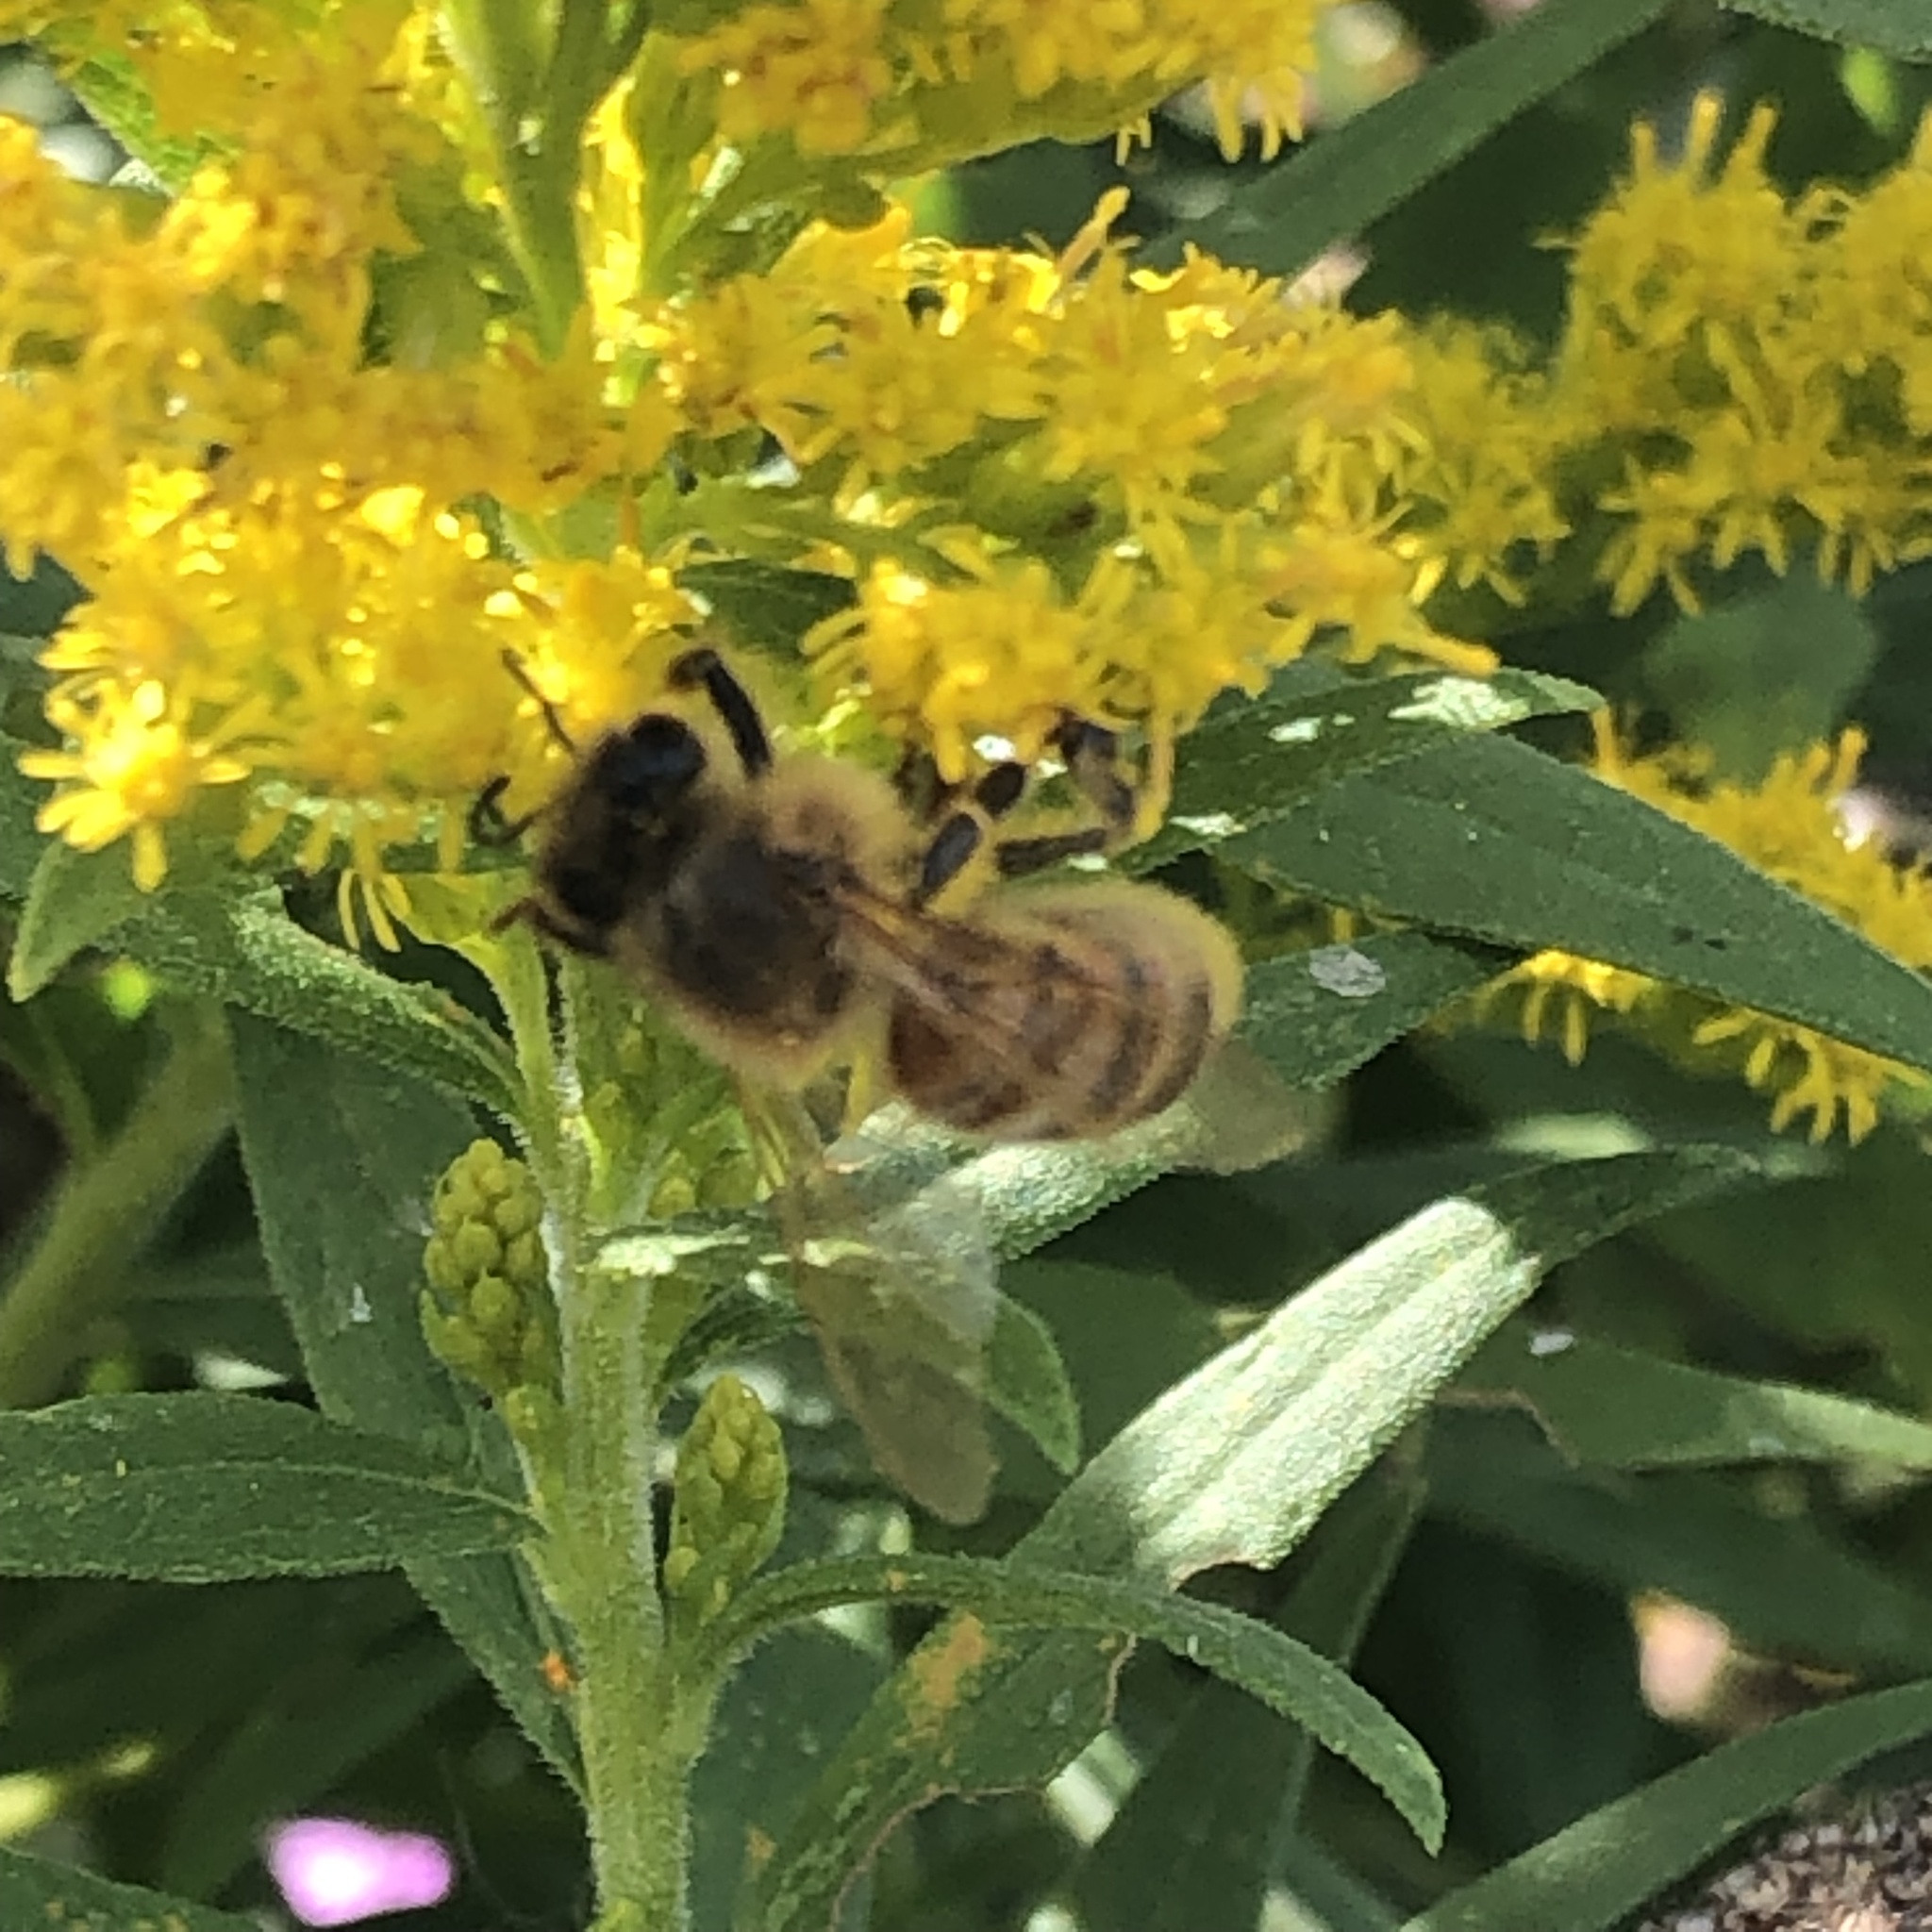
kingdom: Animalia
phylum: Arthropoda
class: Insecta
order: Hymenoptera
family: Apidae
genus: Apis
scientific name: Apis mellifera
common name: Honey bee
